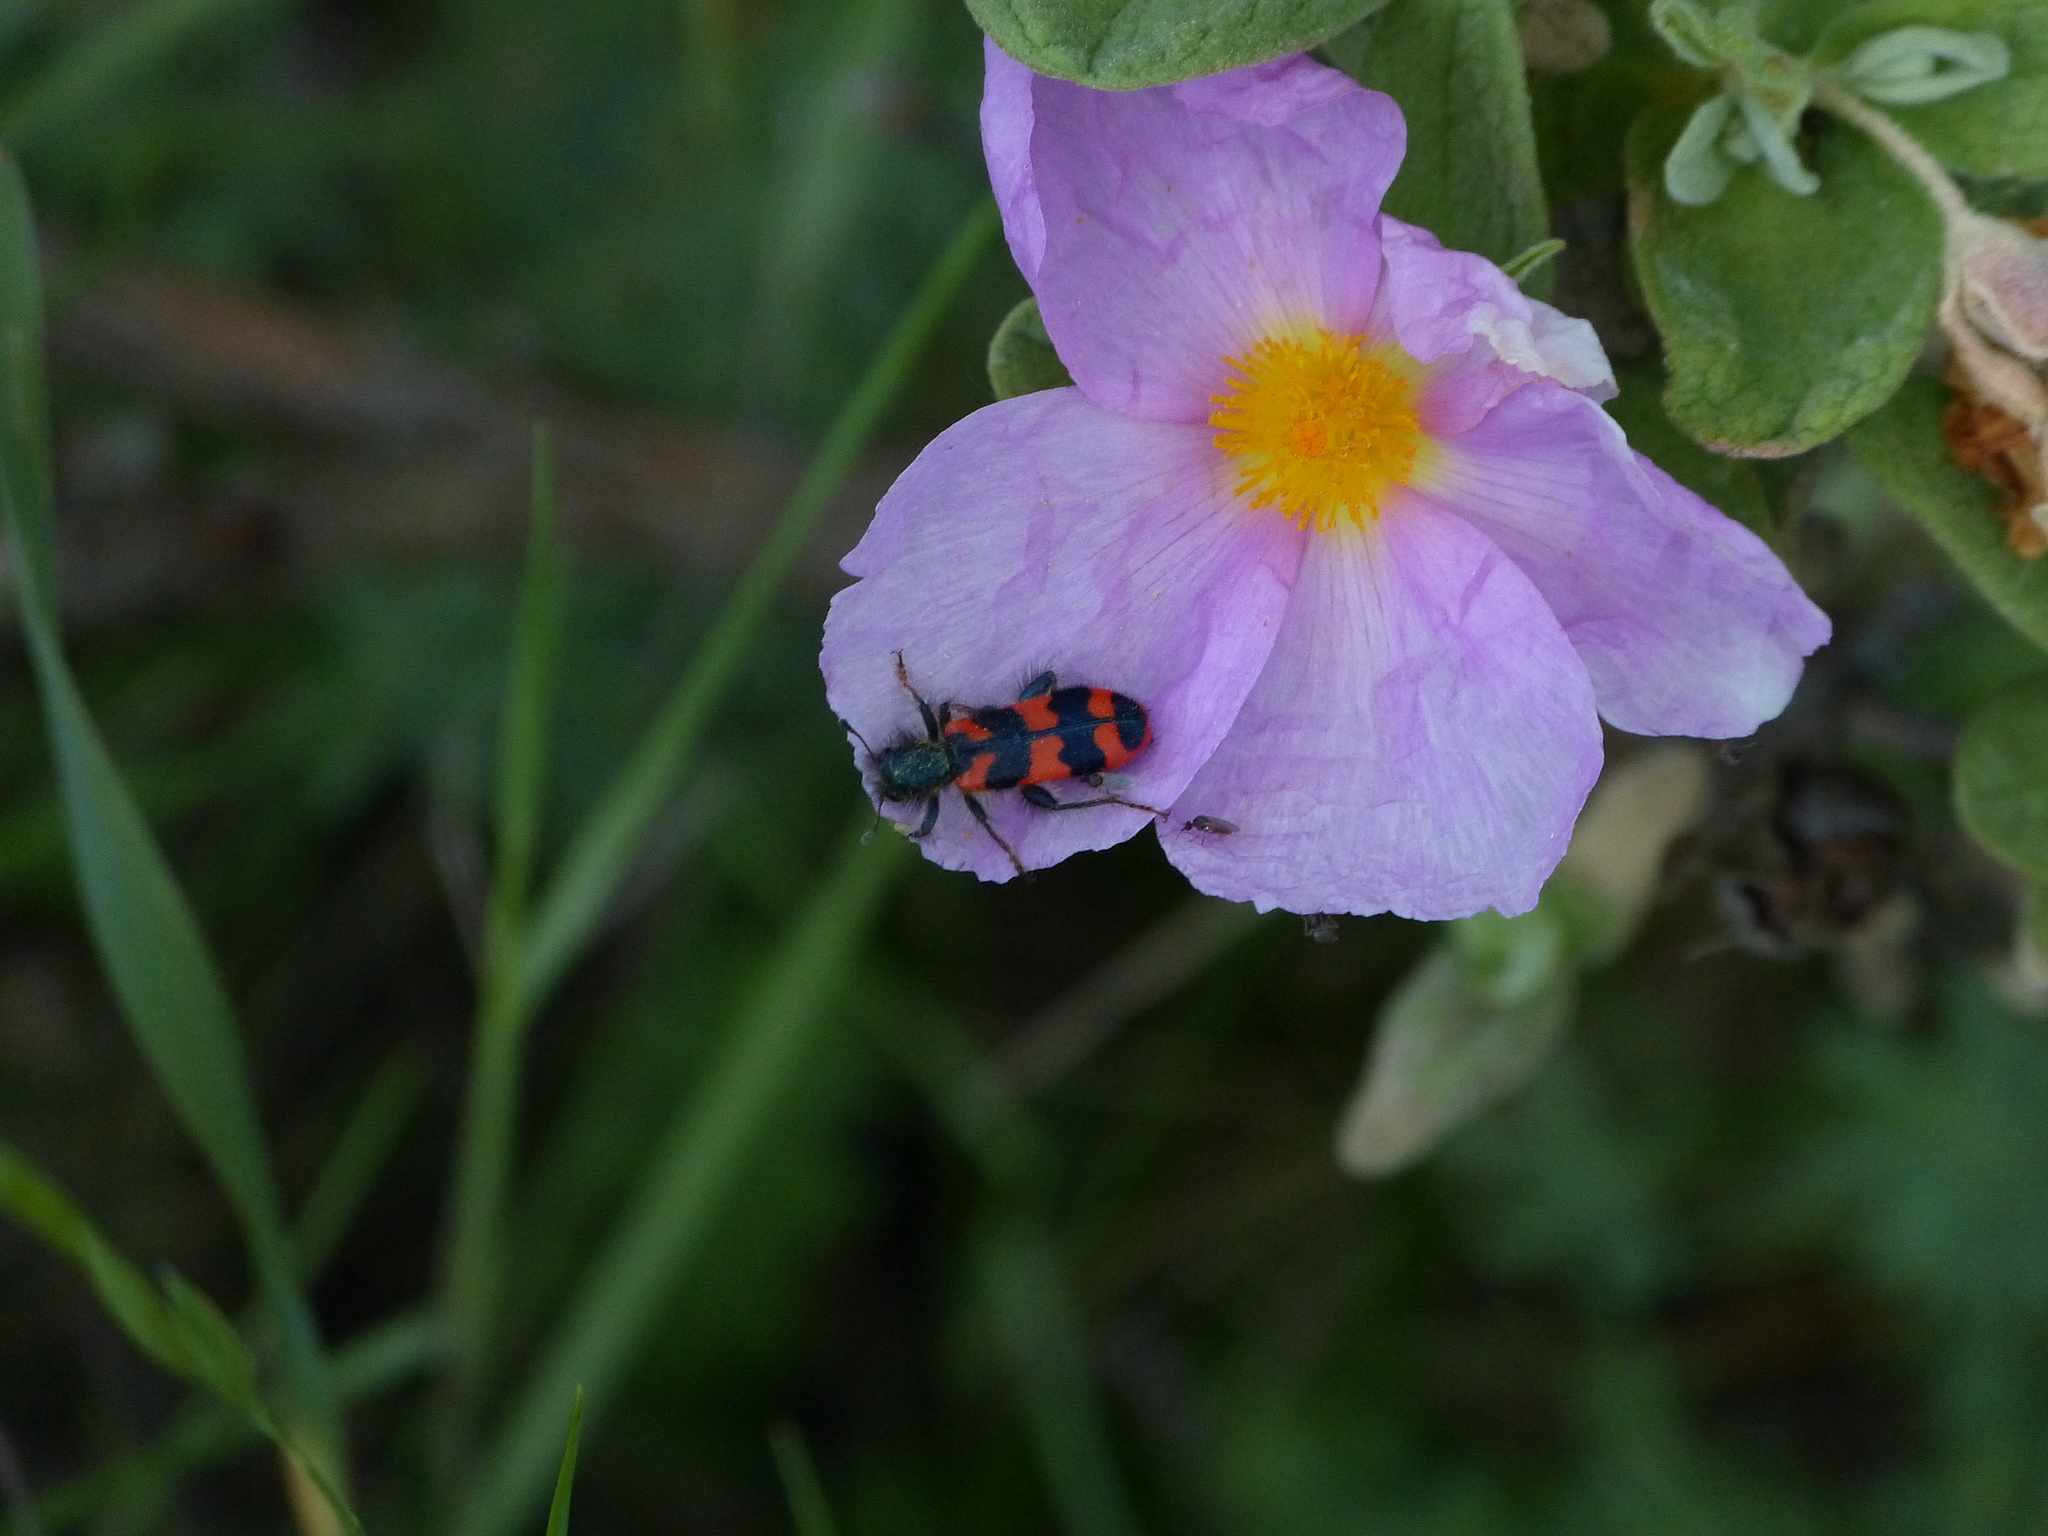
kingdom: Animalia
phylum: Arthropoda
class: Insecta
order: Coleoptera
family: Cleridae
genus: Trichodes
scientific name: Trichodes alvearius
